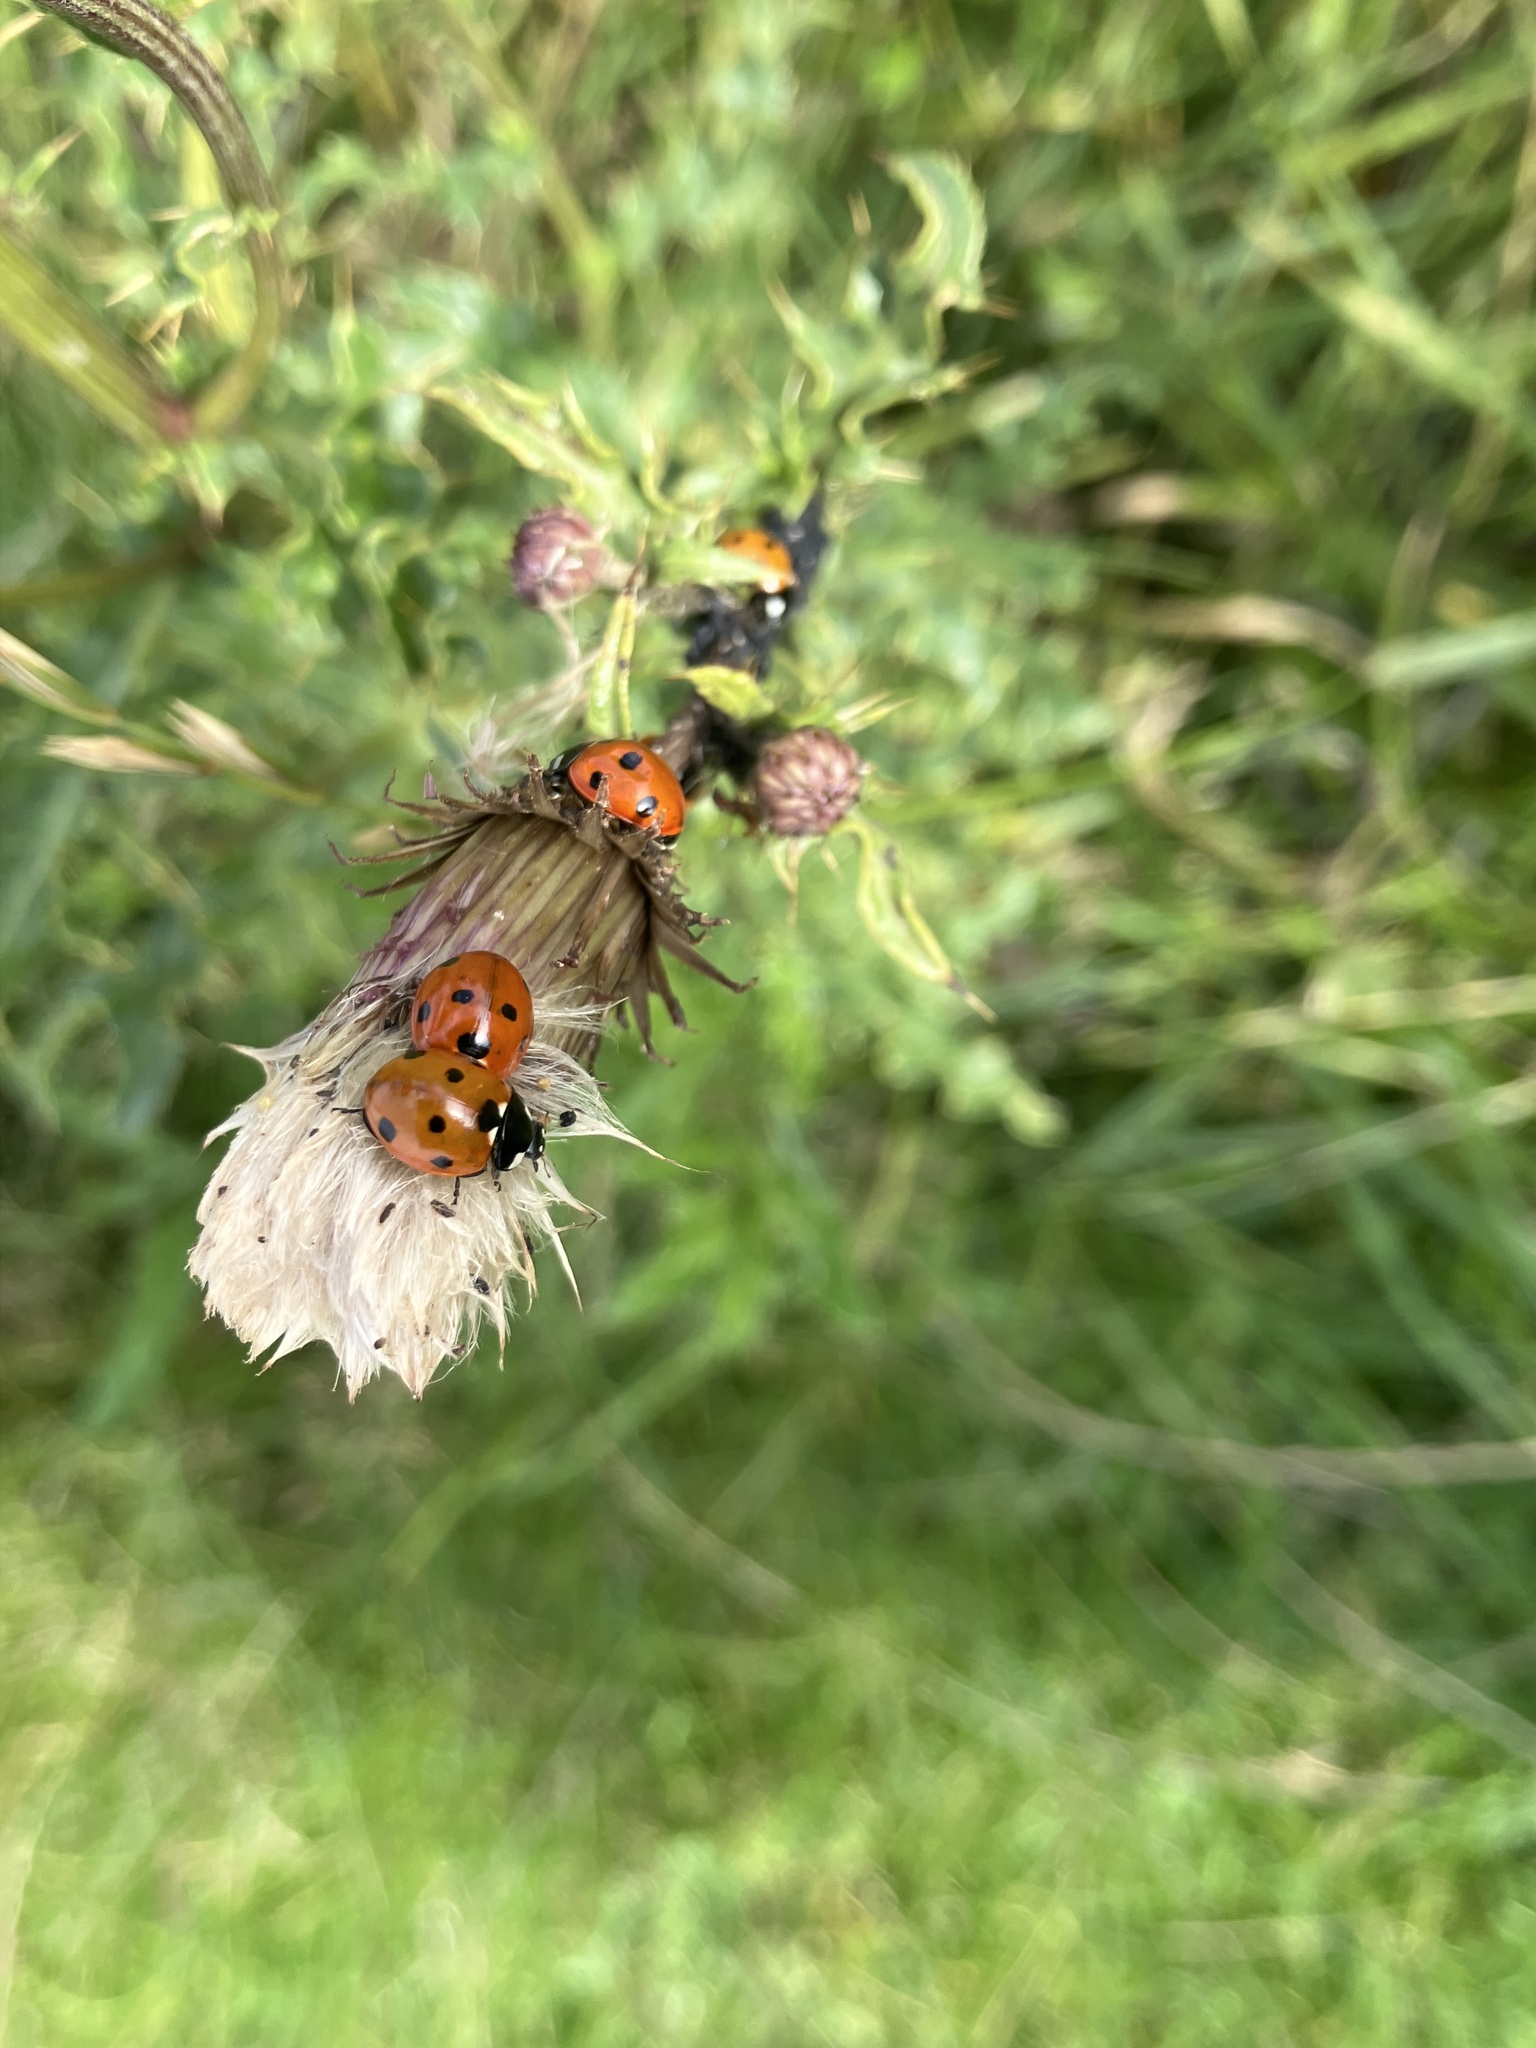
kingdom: Animalia
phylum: Arthropoda
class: Insecta
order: Coleoptera
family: Coccinellidae
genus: Coccinella
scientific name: Coccinella septempunctata
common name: Sevenspotted lady beetle
